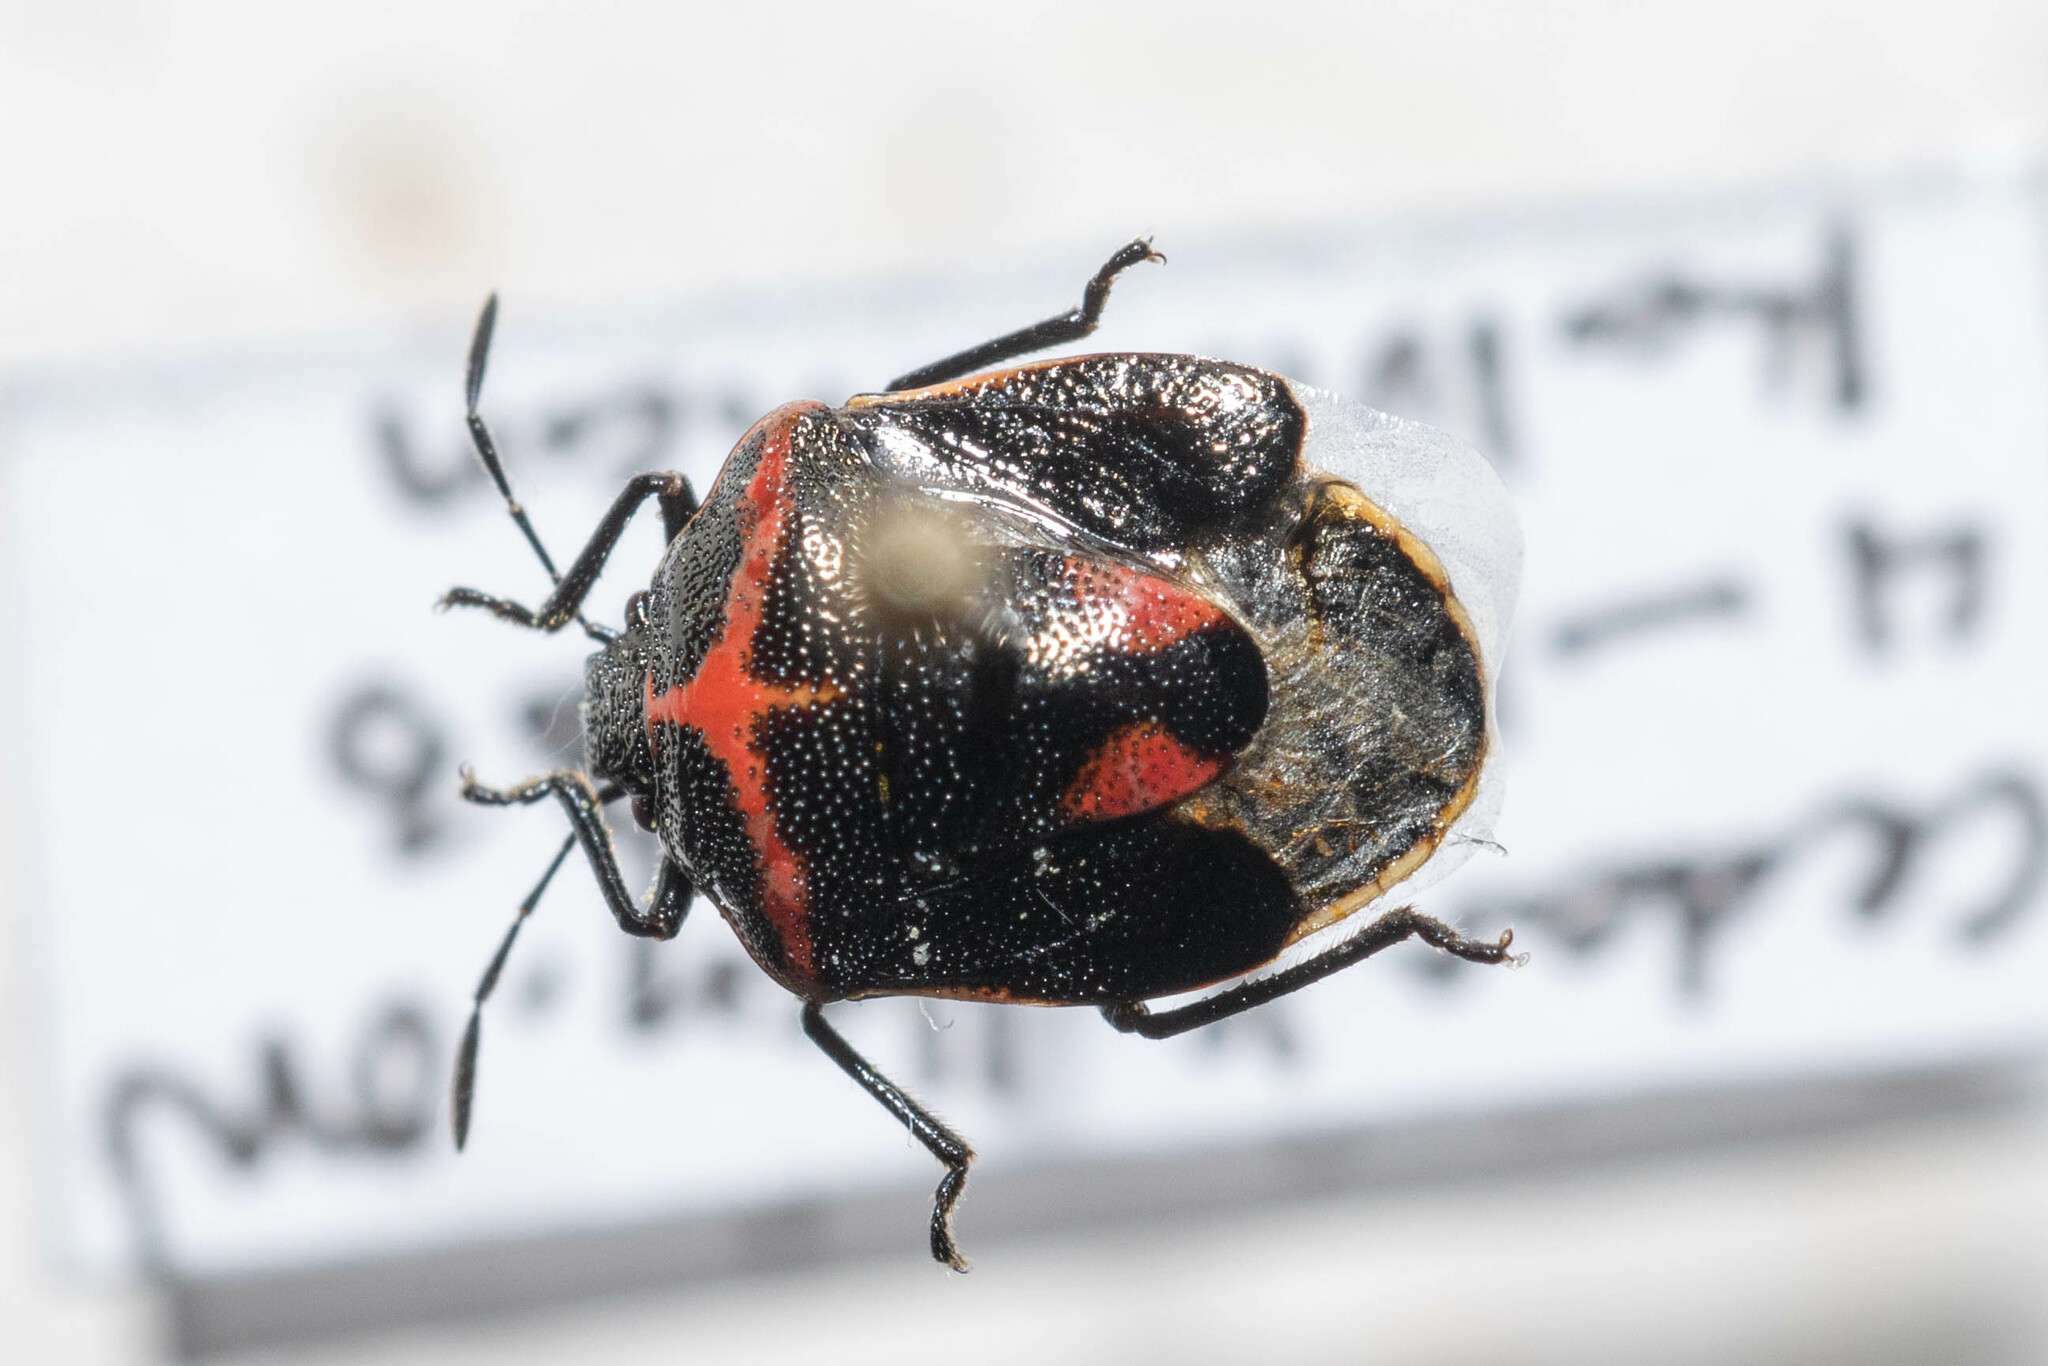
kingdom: Animalia
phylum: Arthropoda
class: Insecta
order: Hemiptera
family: Pentatomidae
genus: Cosmopepla
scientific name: Cosmopepla lintneriana
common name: Twice-stabbed stink bug
